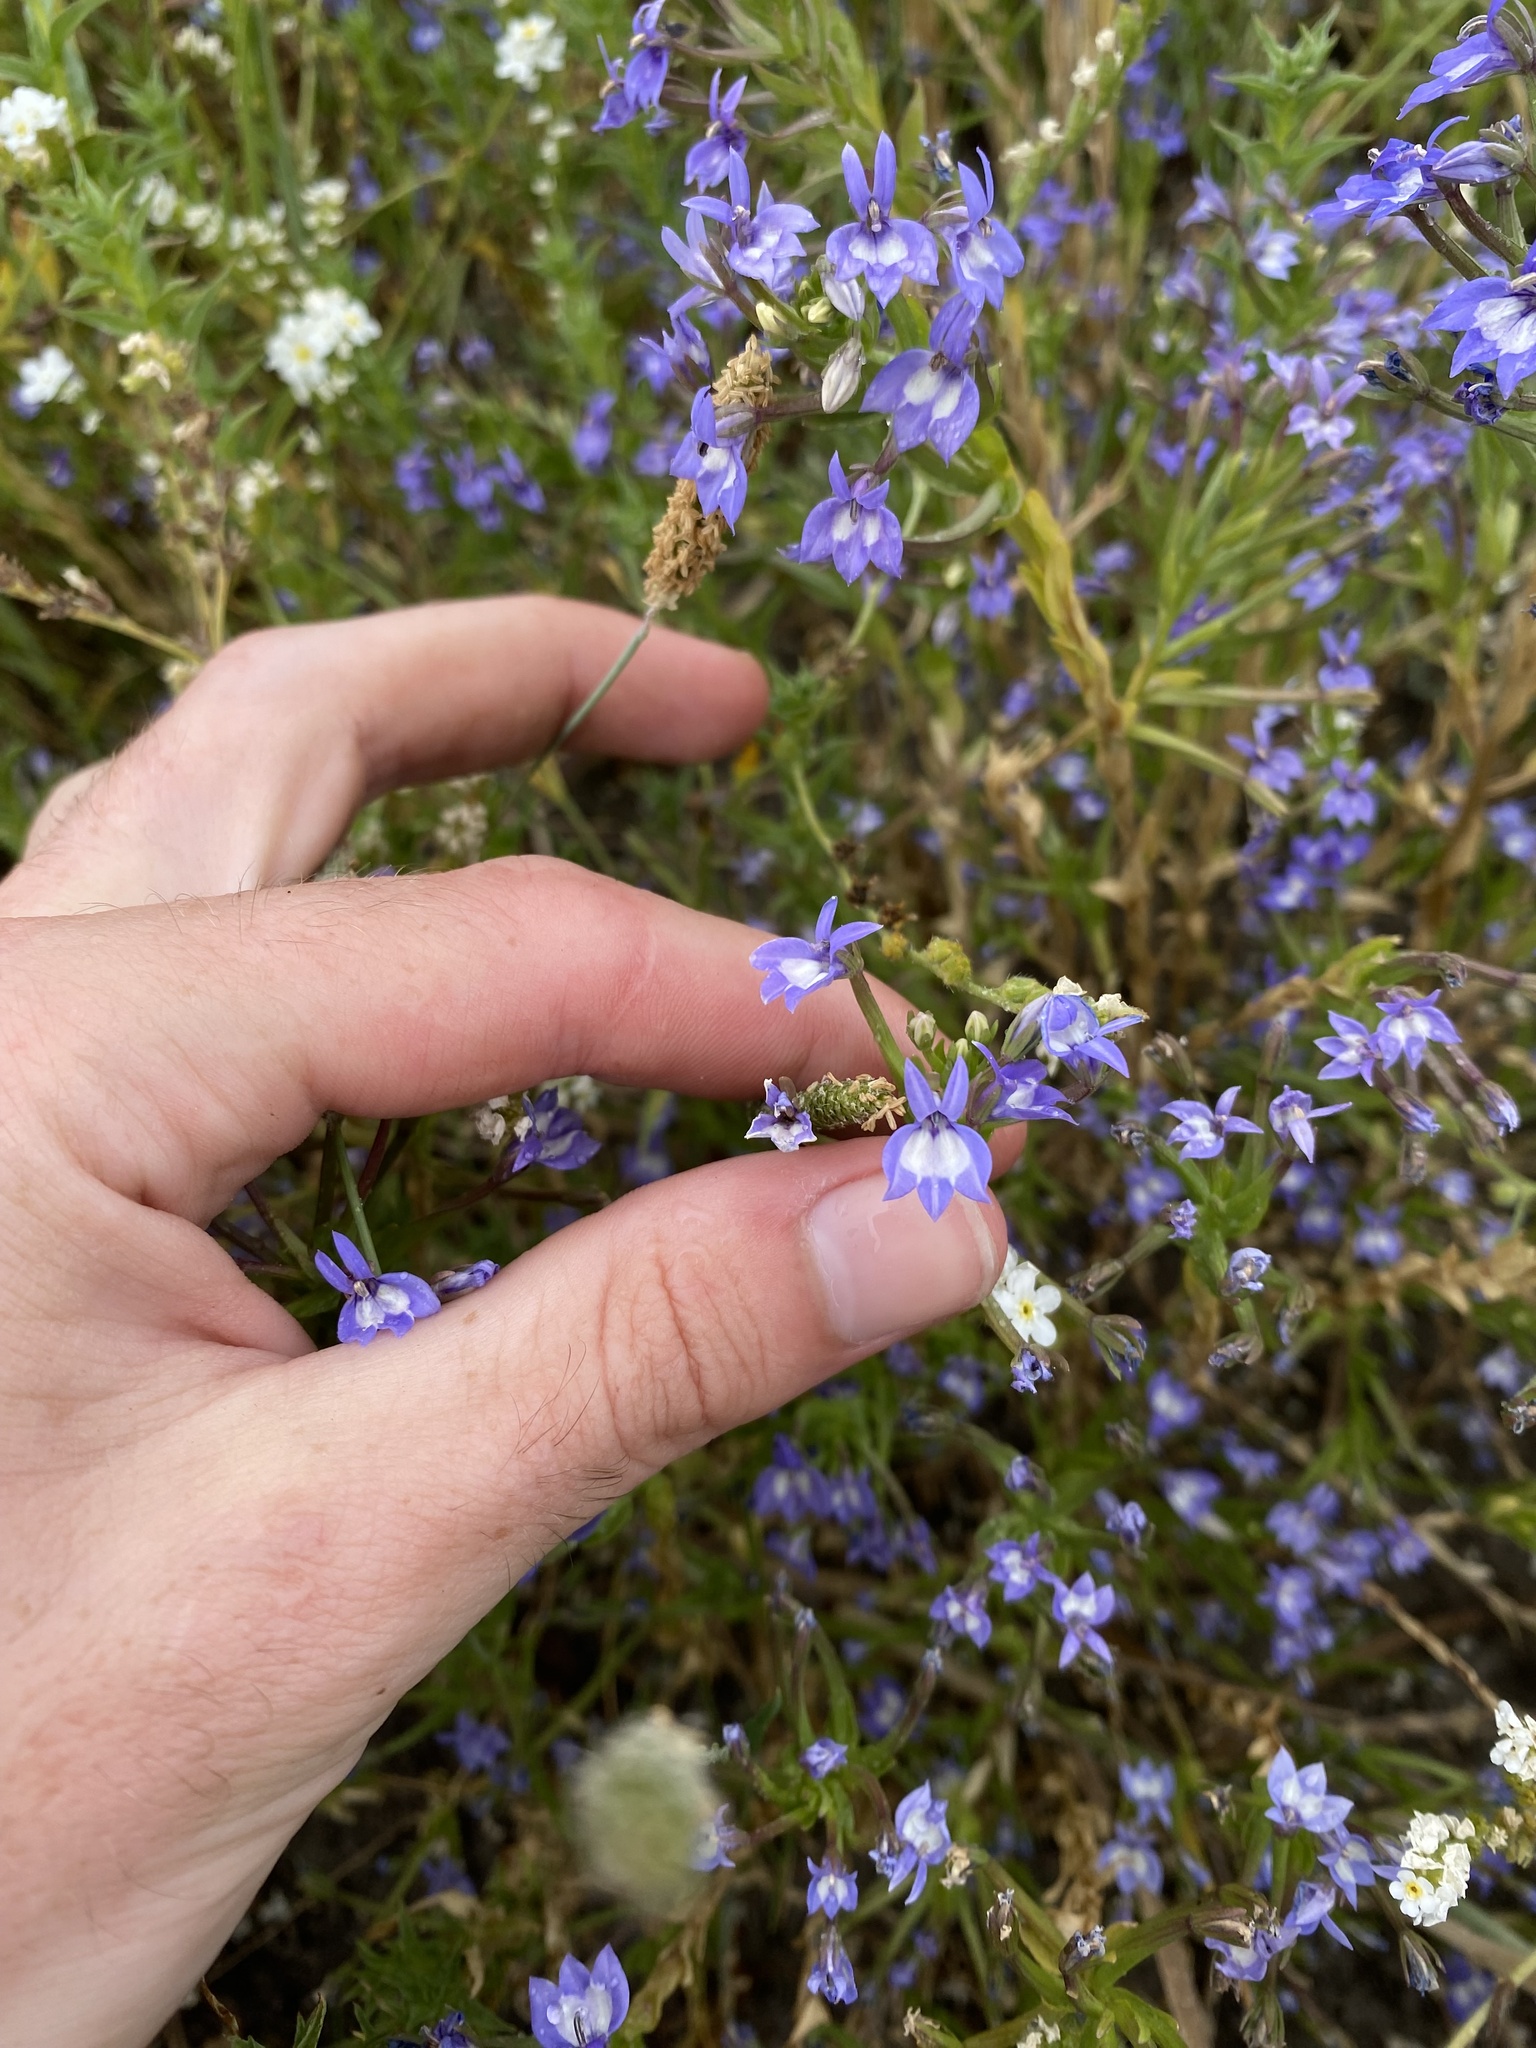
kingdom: Plantae
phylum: Tracheophyta
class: Magnoliopsida
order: Asterales
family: Campanulaceae
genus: Downingia
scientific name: Downingia elegans
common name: Californian lobelia
